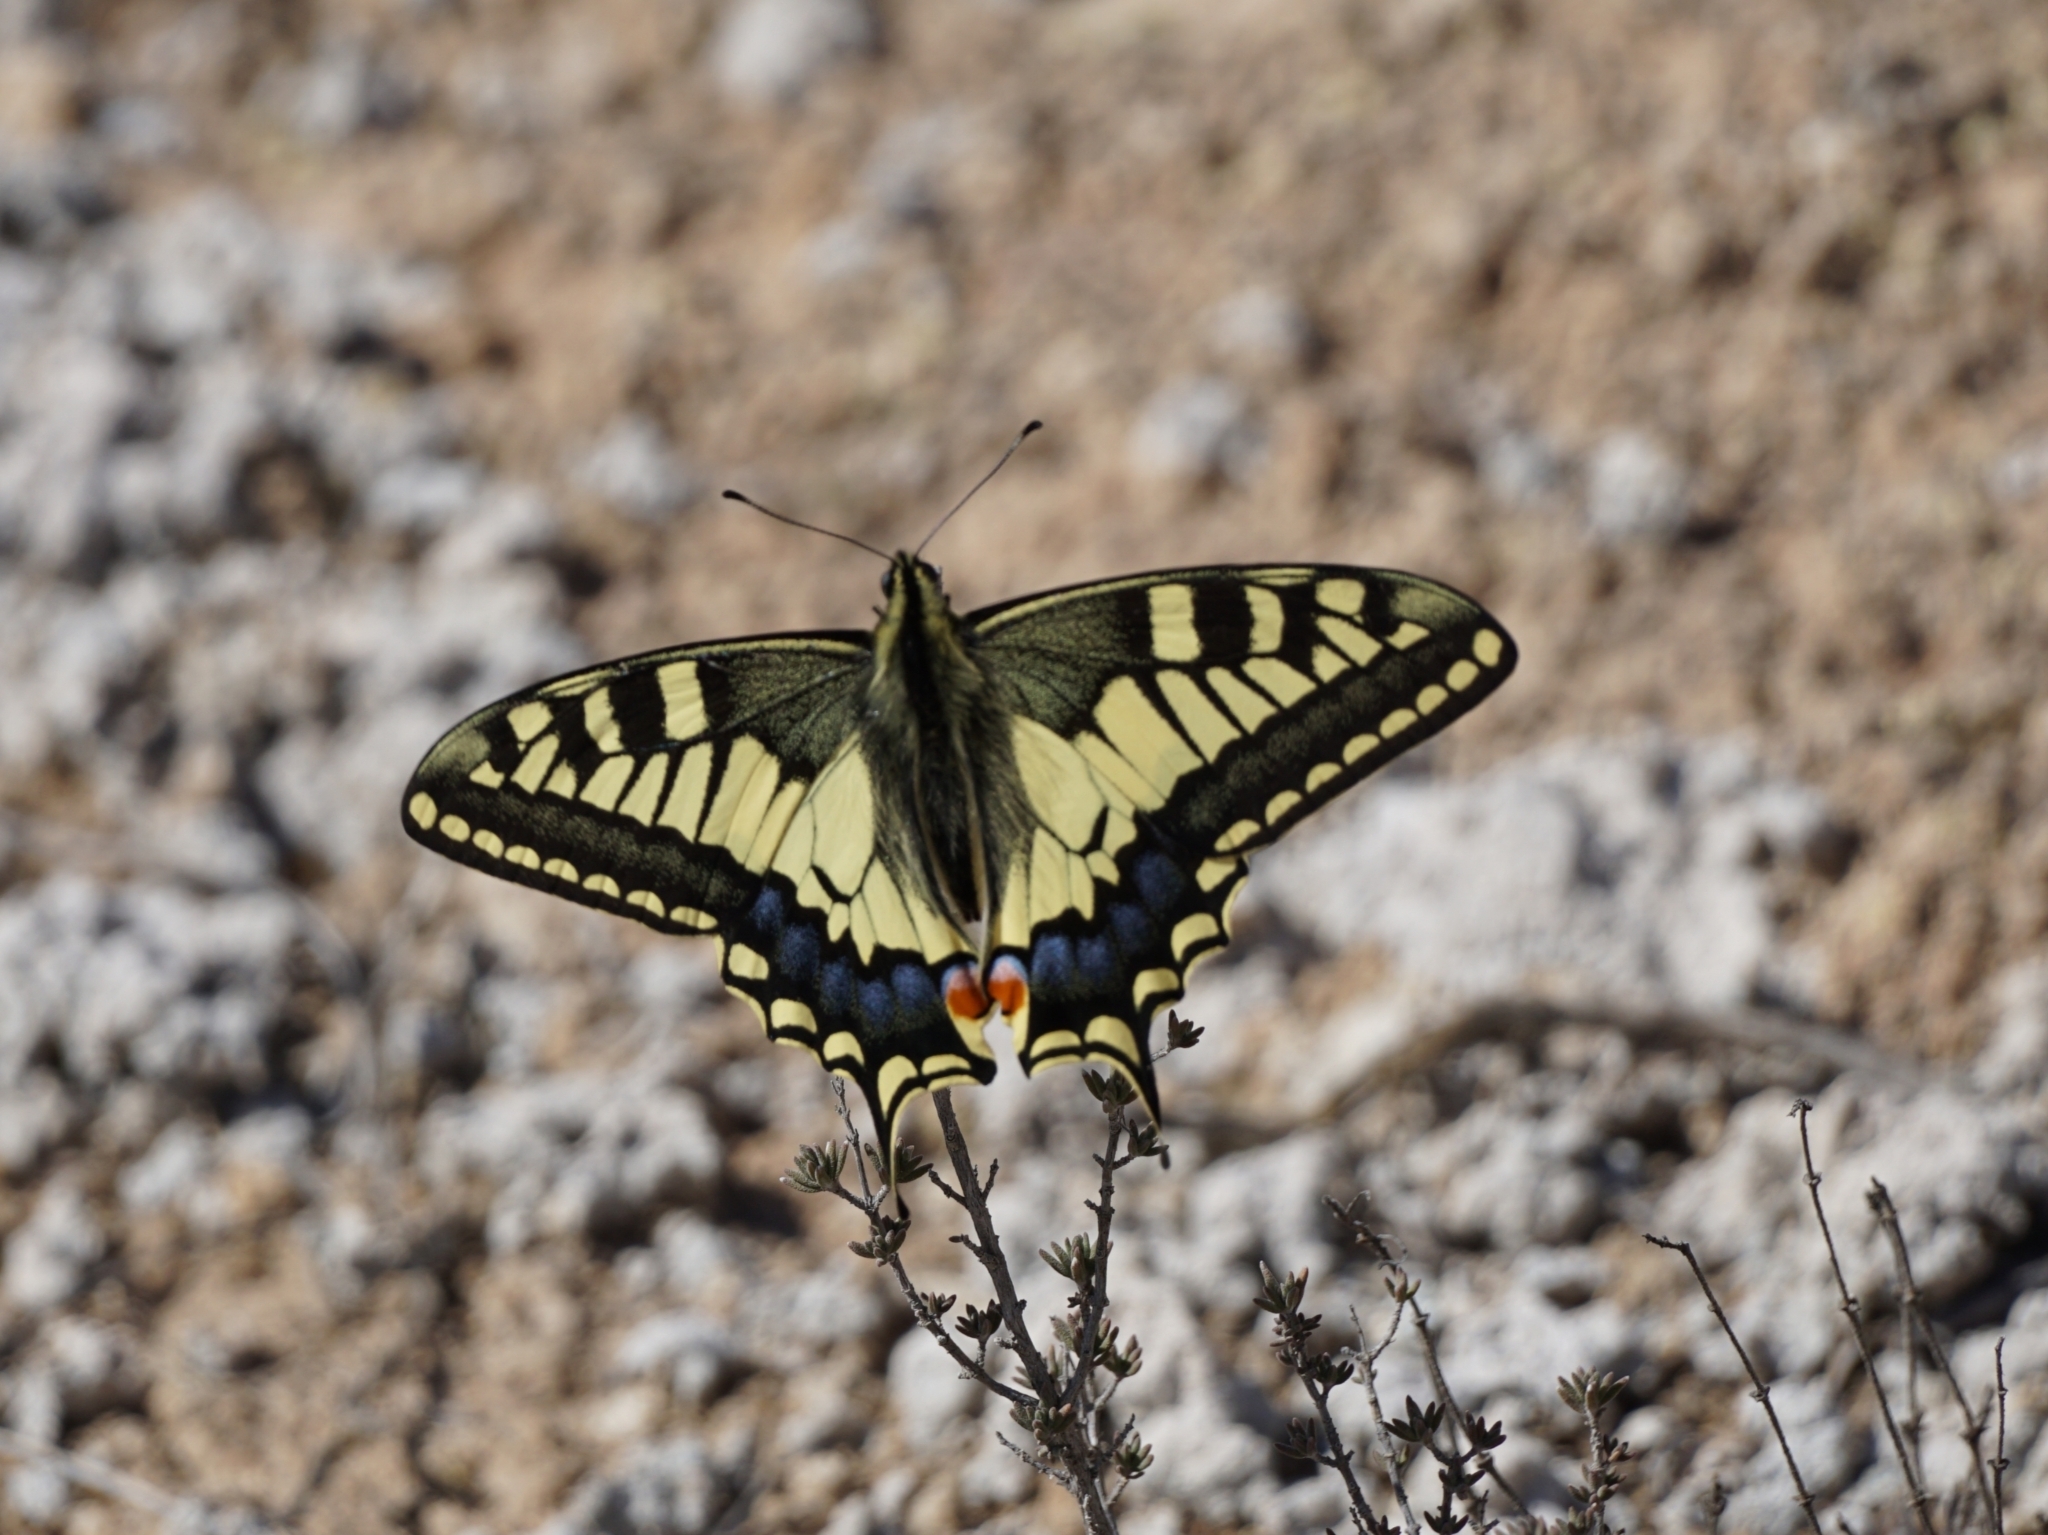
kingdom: Animalia
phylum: Arthropoda
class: Insecta
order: Lepidoptera
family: Papilionidae
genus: Papilio
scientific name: Papilio machaon
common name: Swallowtail
